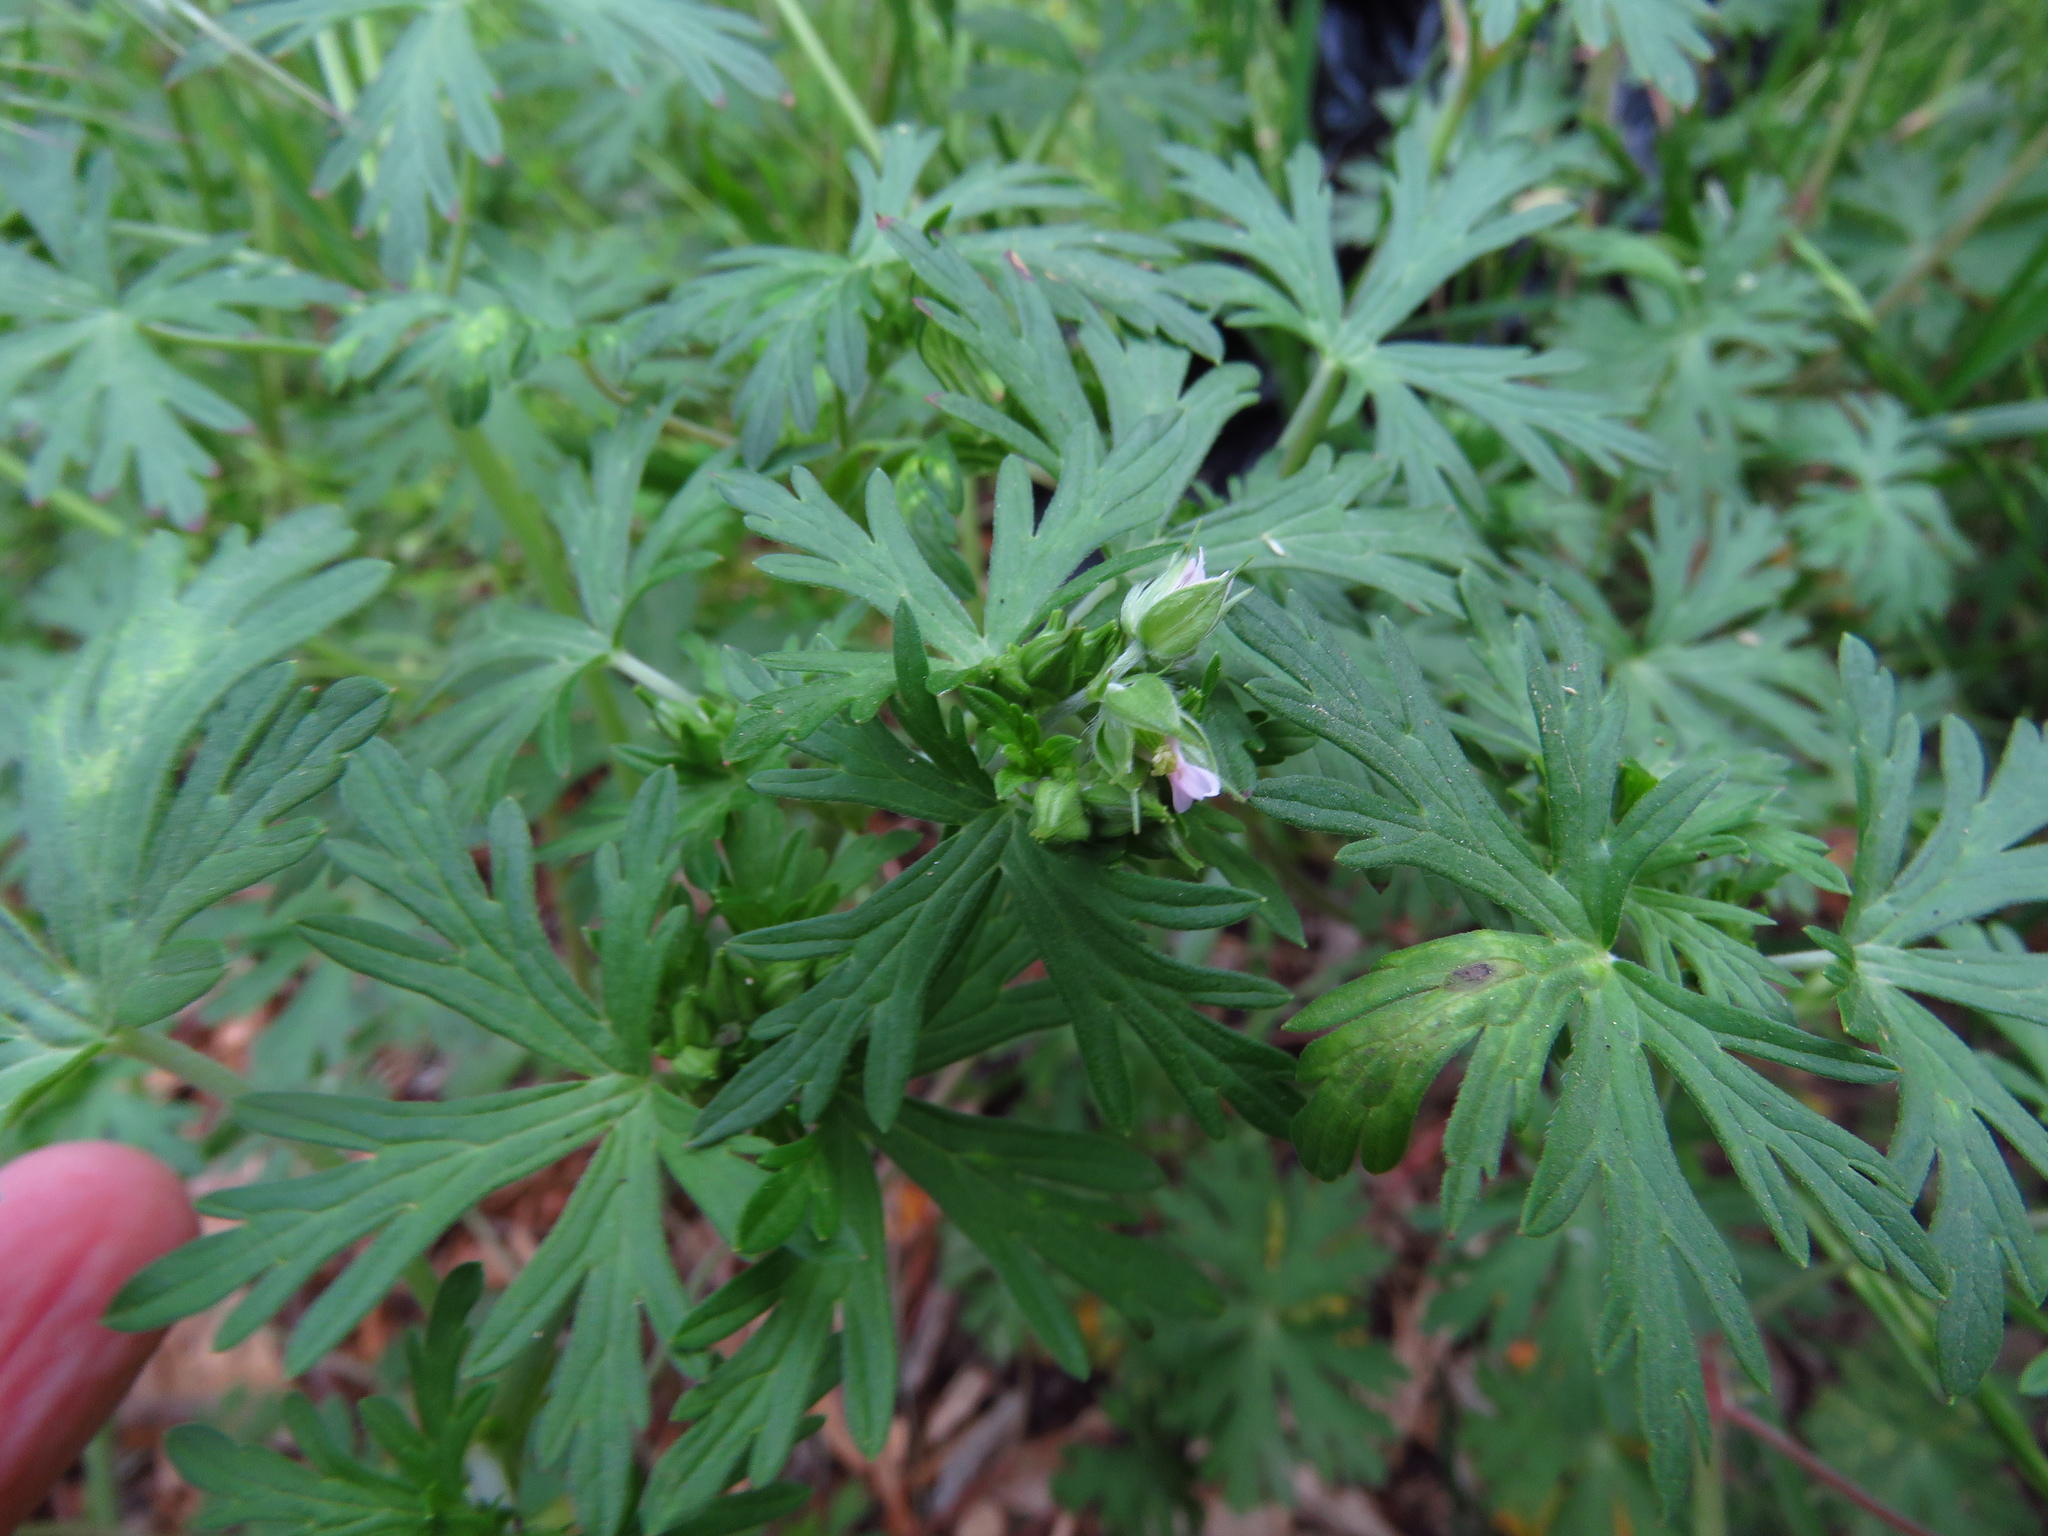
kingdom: Plantae
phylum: Tracheophyta
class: Magnoliopsida
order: Geraniales
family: Geraniaceae
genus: Geranium
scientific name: Geranium carolinianum
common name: Carolina crane's-bill
